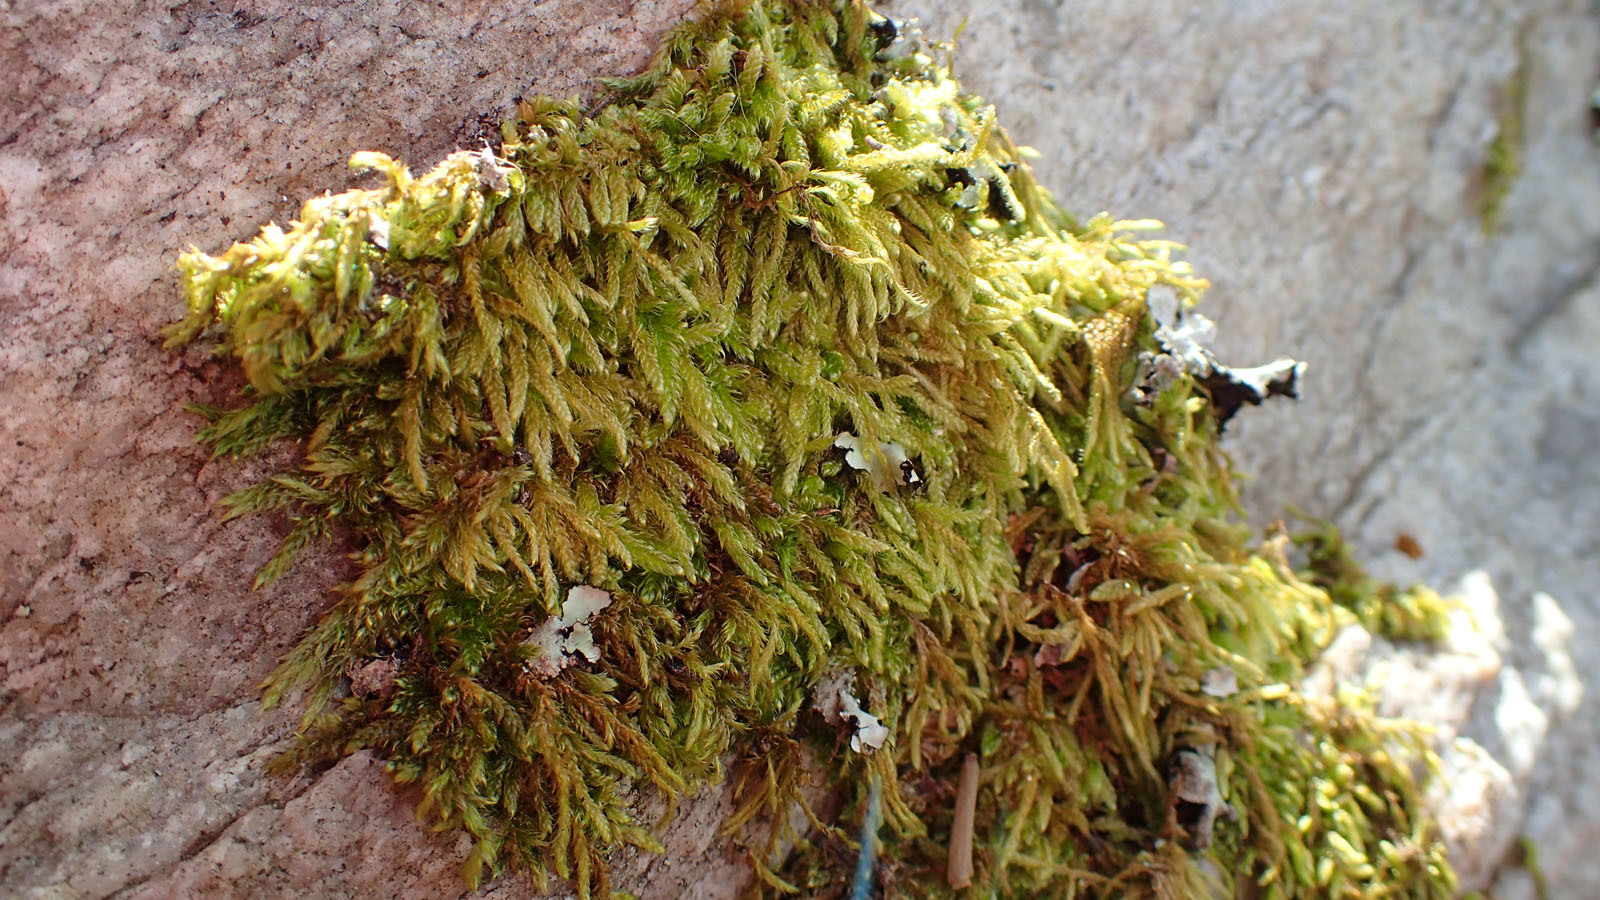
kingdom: Plantae
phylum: Bryophyta
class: Bryopsida
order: Hypnales
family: Hypnaceae
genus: Hypnum
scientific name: Hypnum cupressiforme
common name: Cypress-leaved plait-moss
